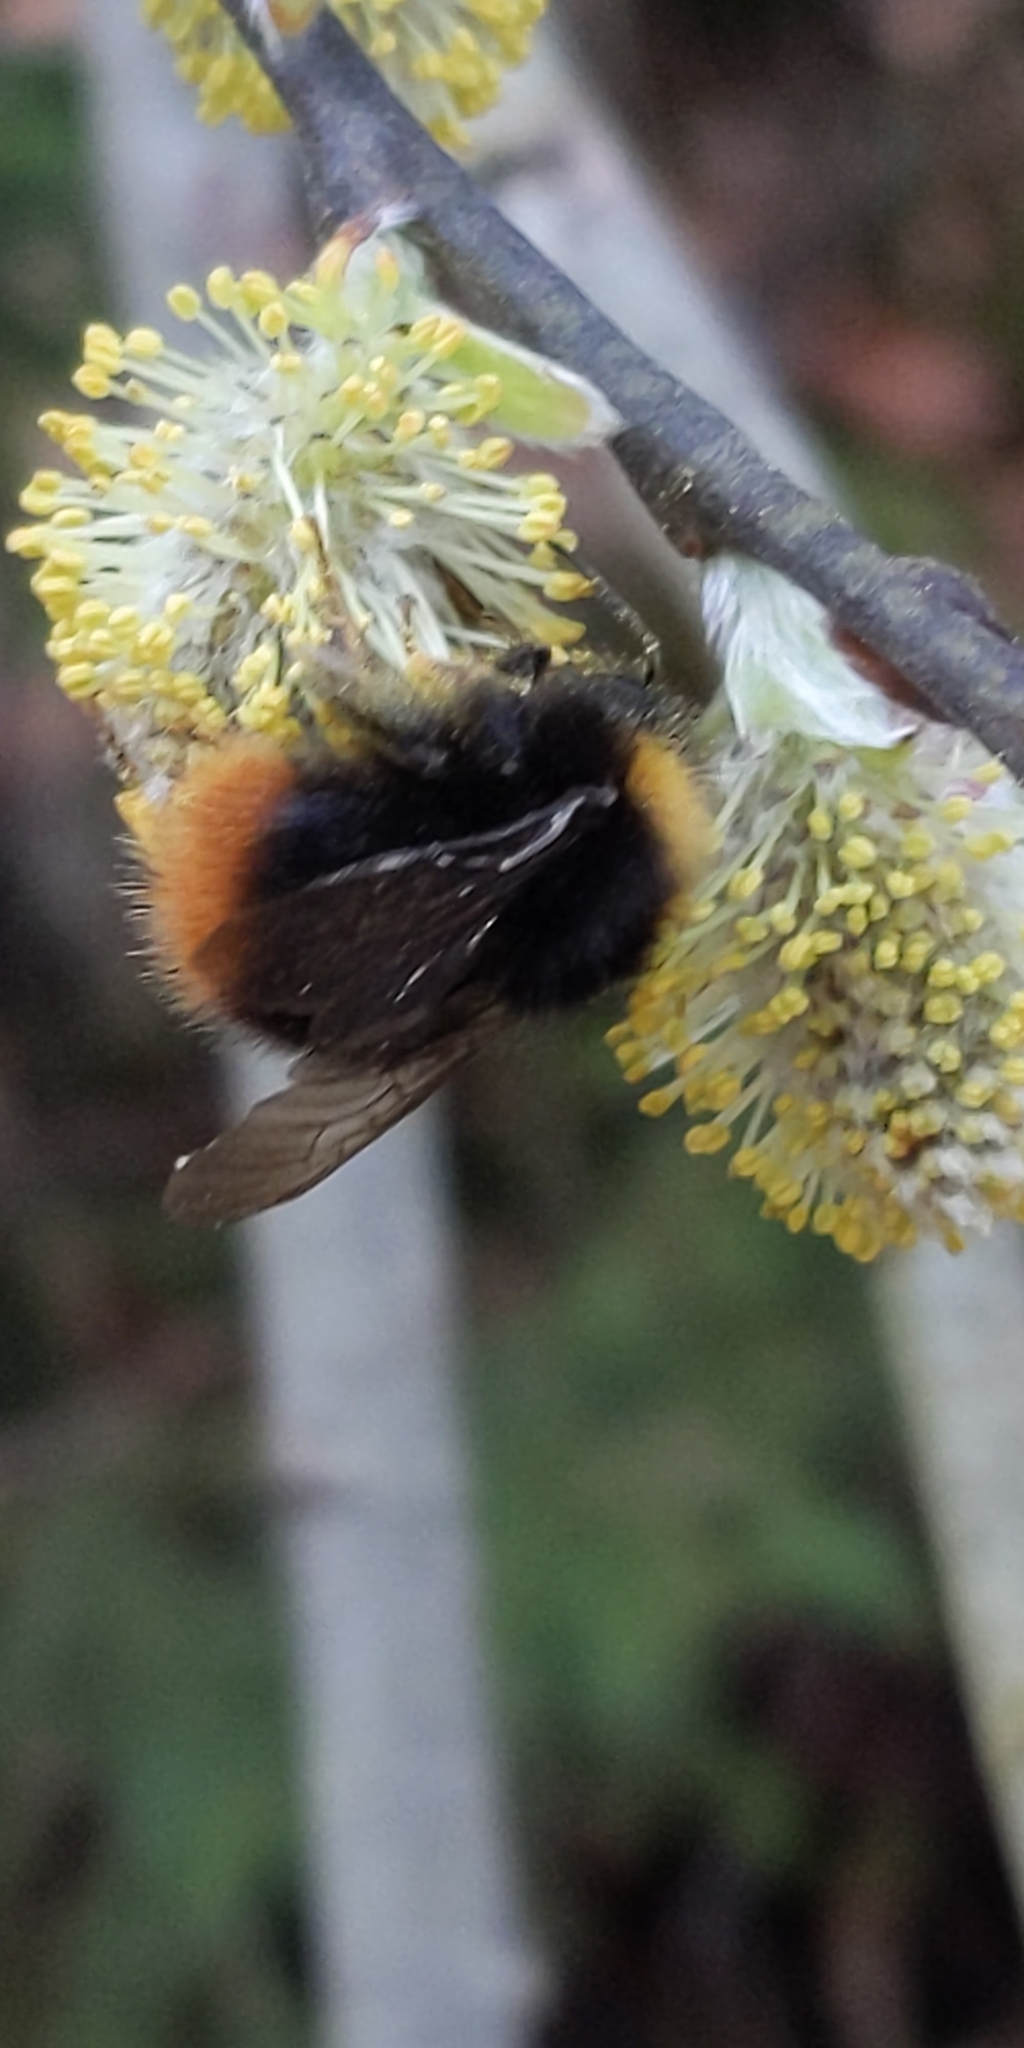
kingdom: Animalia
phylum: Arthropoda
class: Insecta
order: Hymenoptera
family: Apidae
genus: Bombus
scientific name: Bombus pratorum
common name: Early humble-bee
